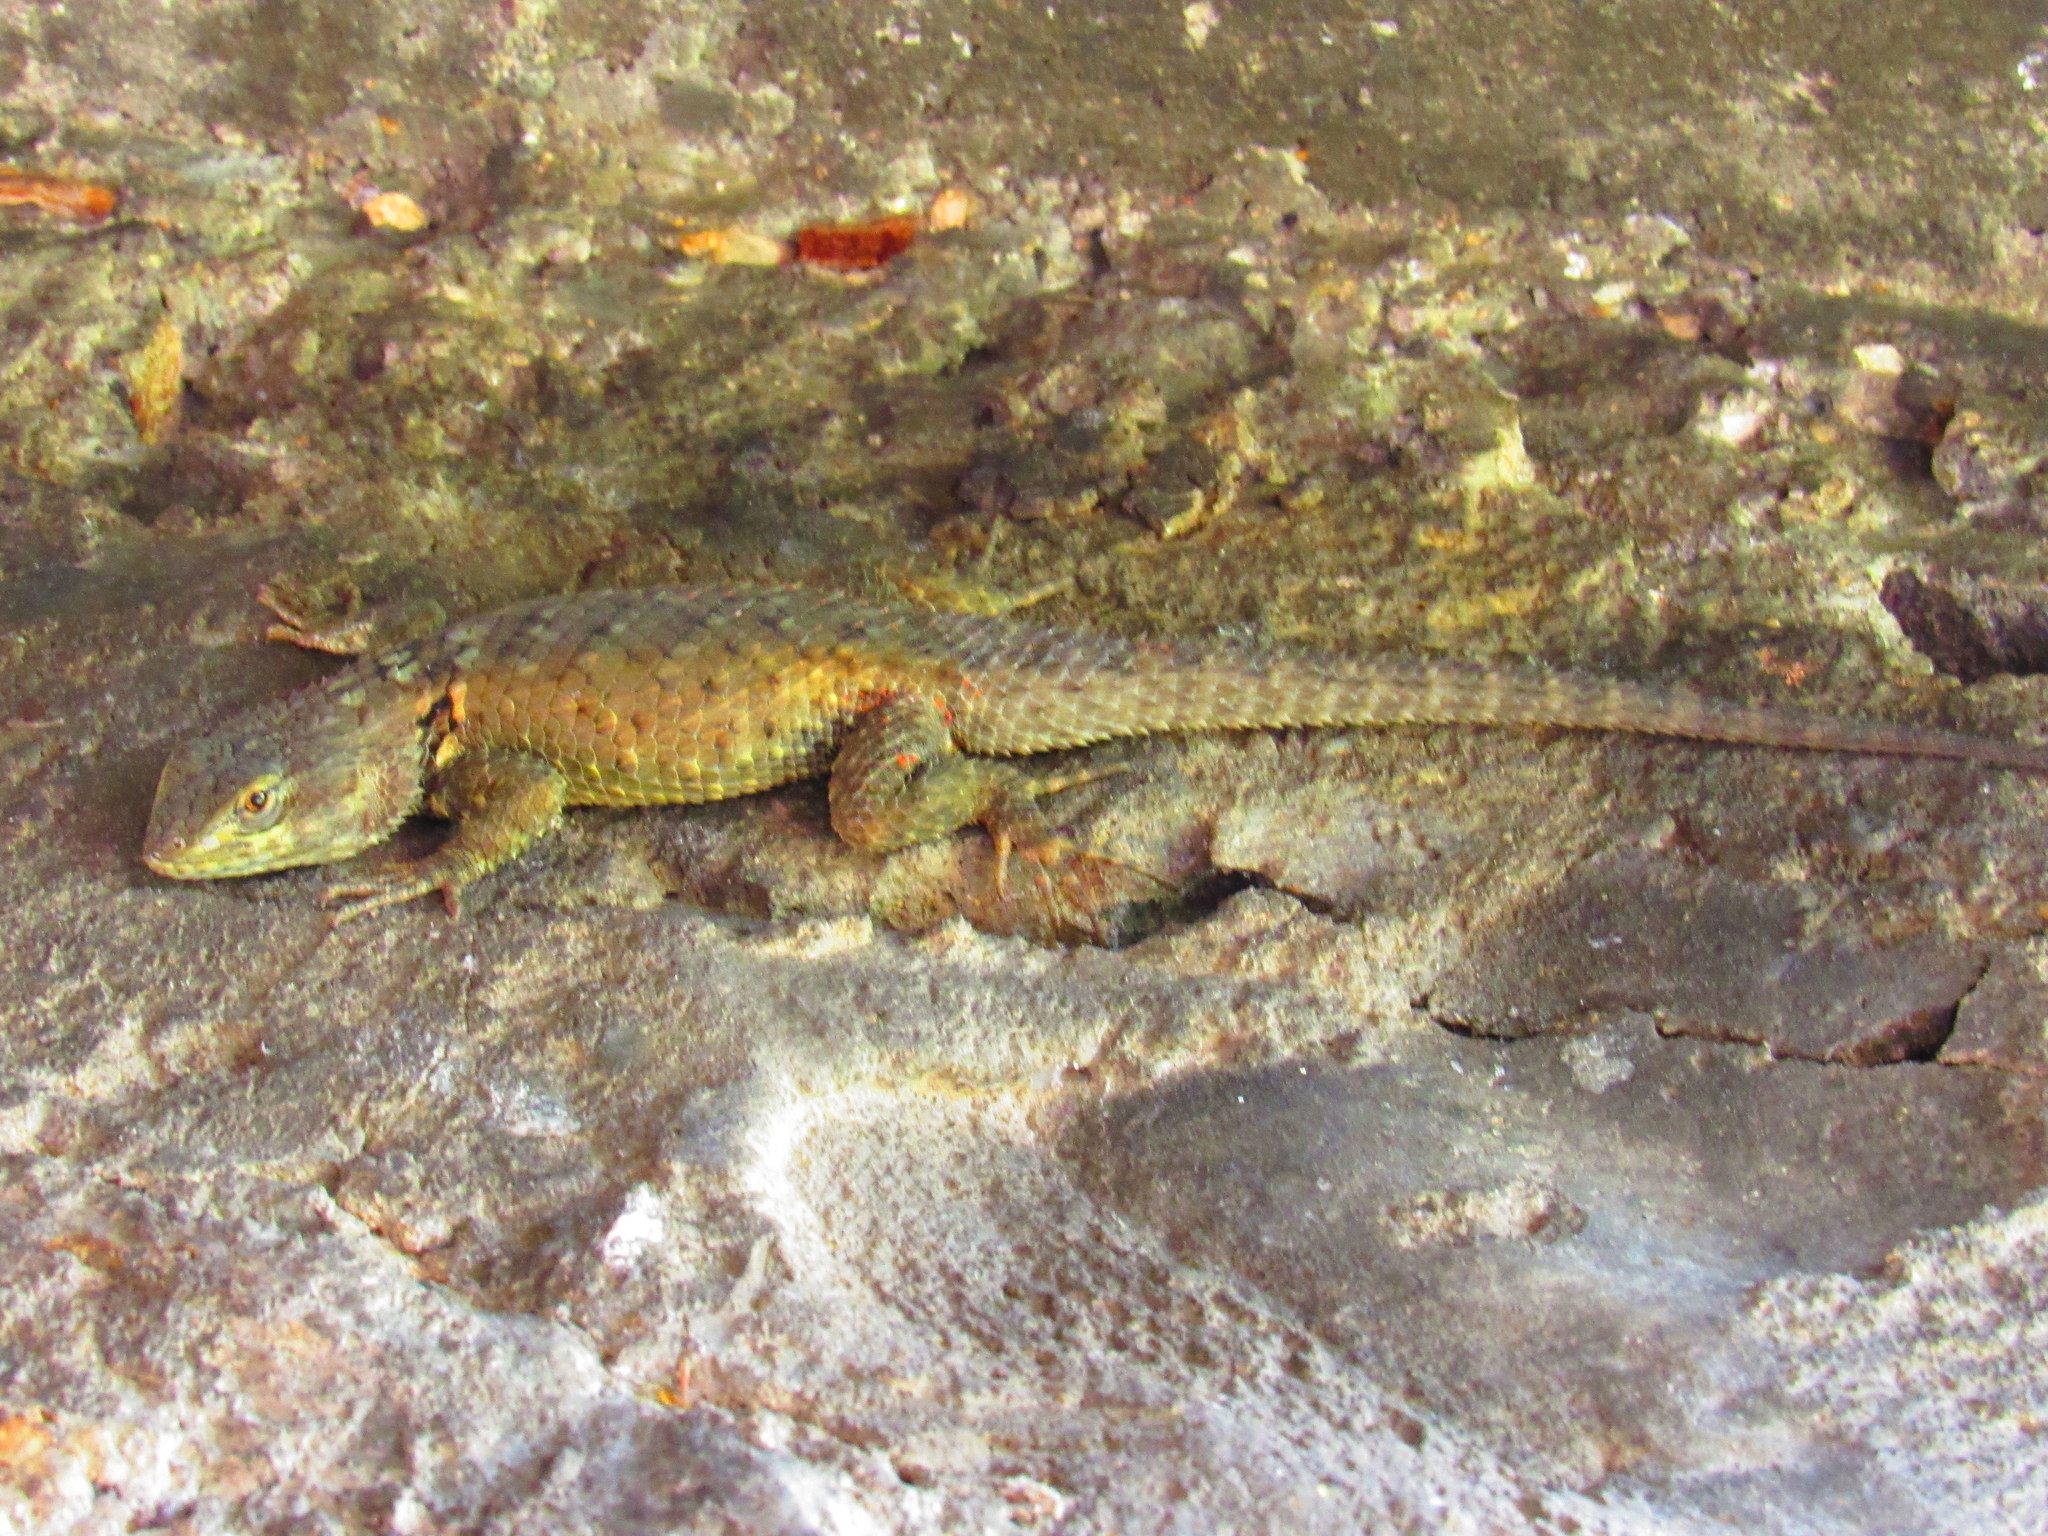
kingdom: Animalia
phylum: Chordata
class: Squamata
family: Phrynosomatidae
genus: Sceloporus
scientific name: Sceloporus torquatus
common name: Central plateau torquate lizard [melanogaster]
